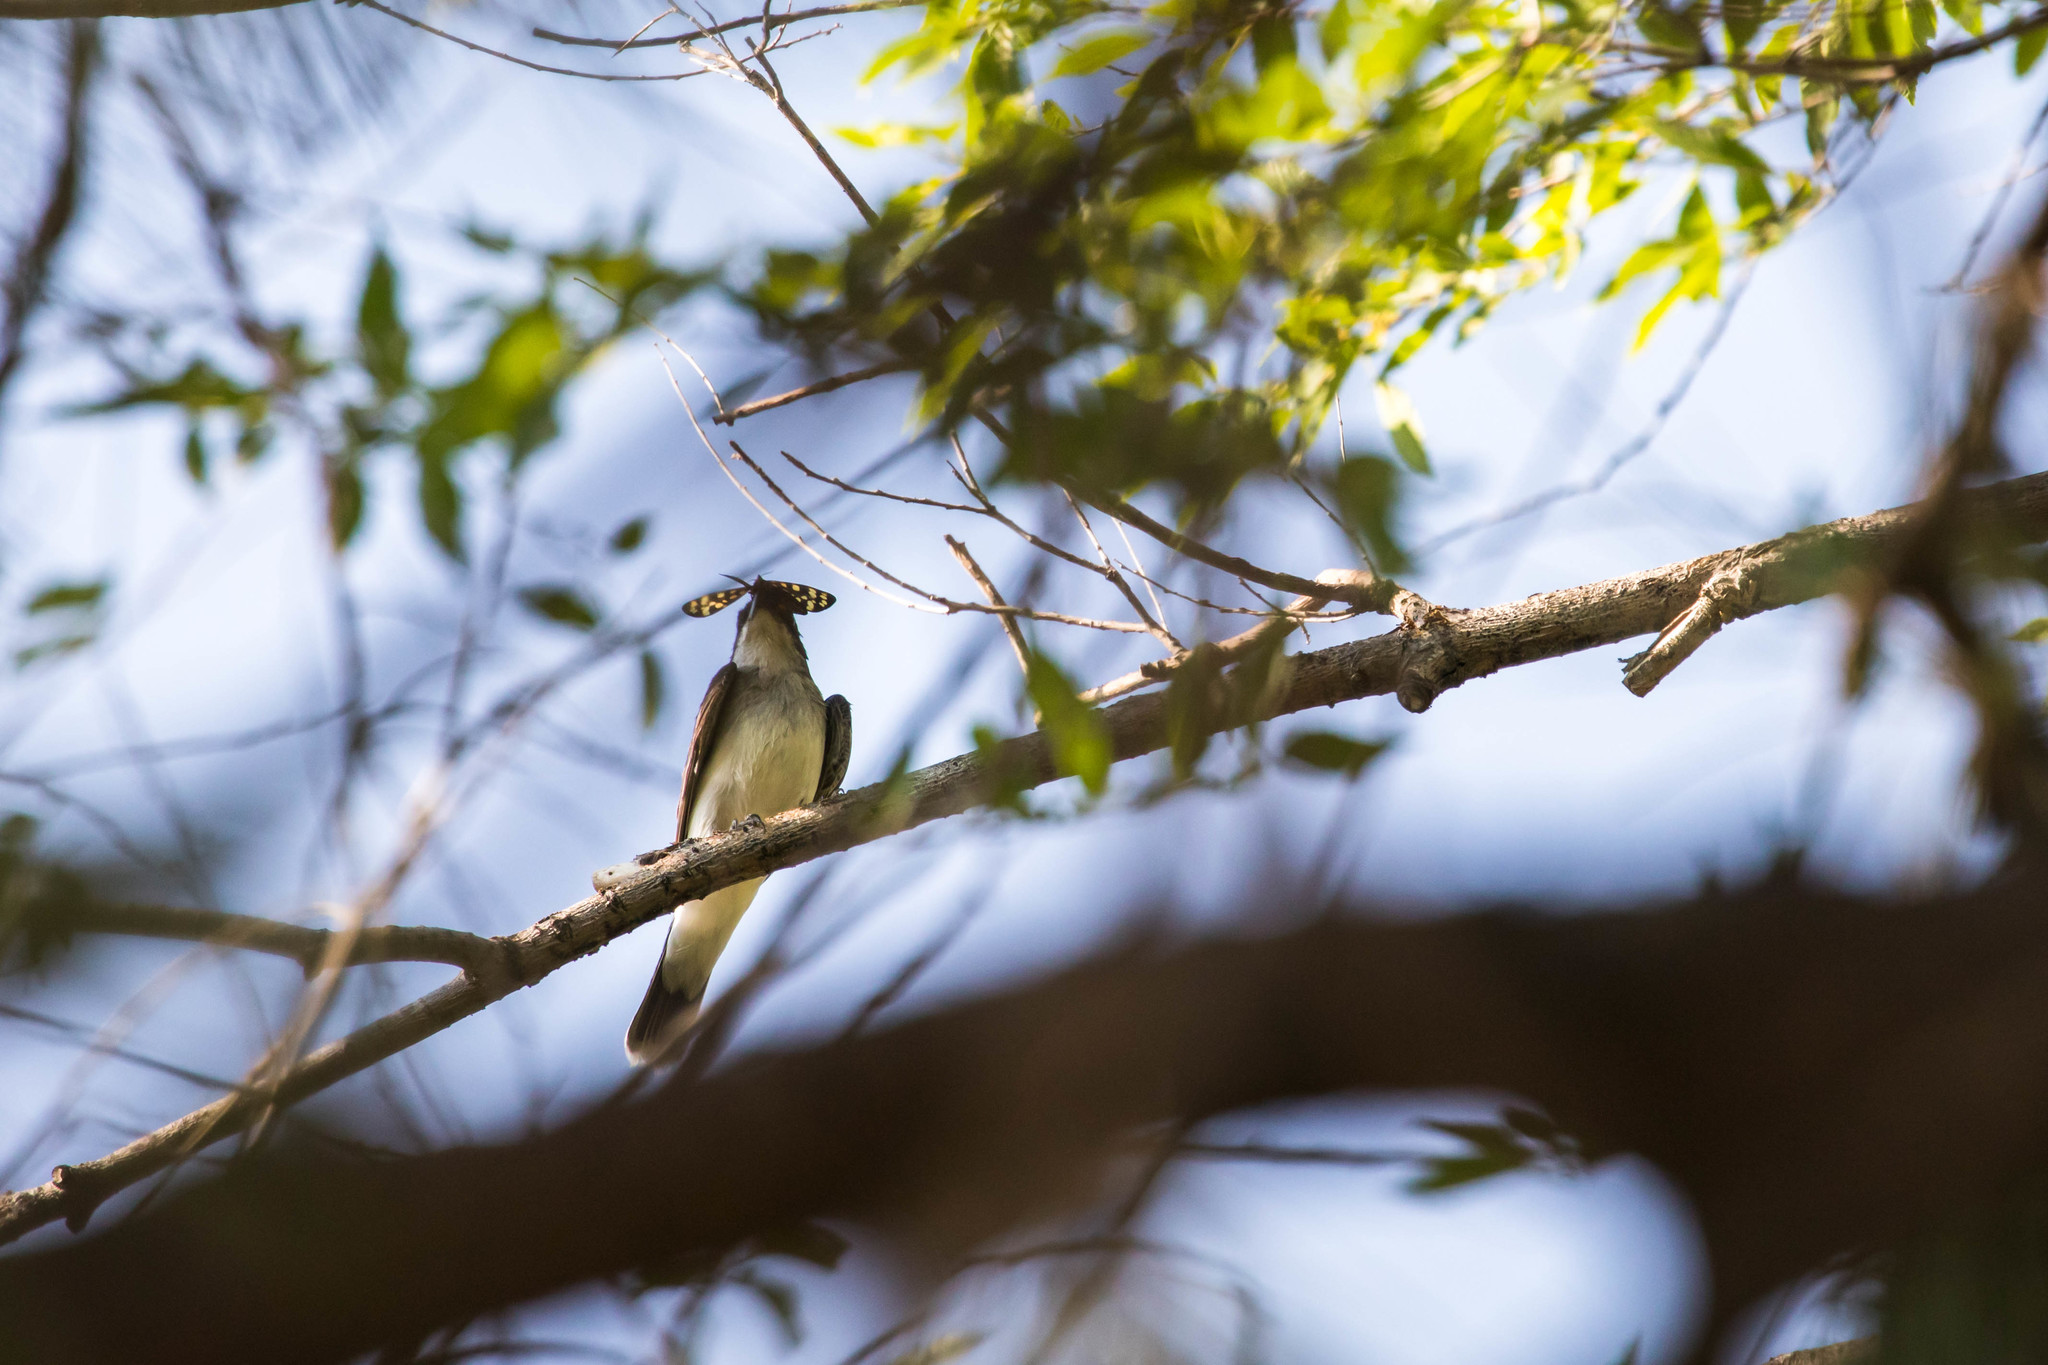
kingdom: Animalia
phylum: Chordata
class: Aves
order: Passeriformes
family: Tyrannidae
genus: Tyrannus
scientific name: Tyrannus tyrannus
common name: Eastern kingbird
